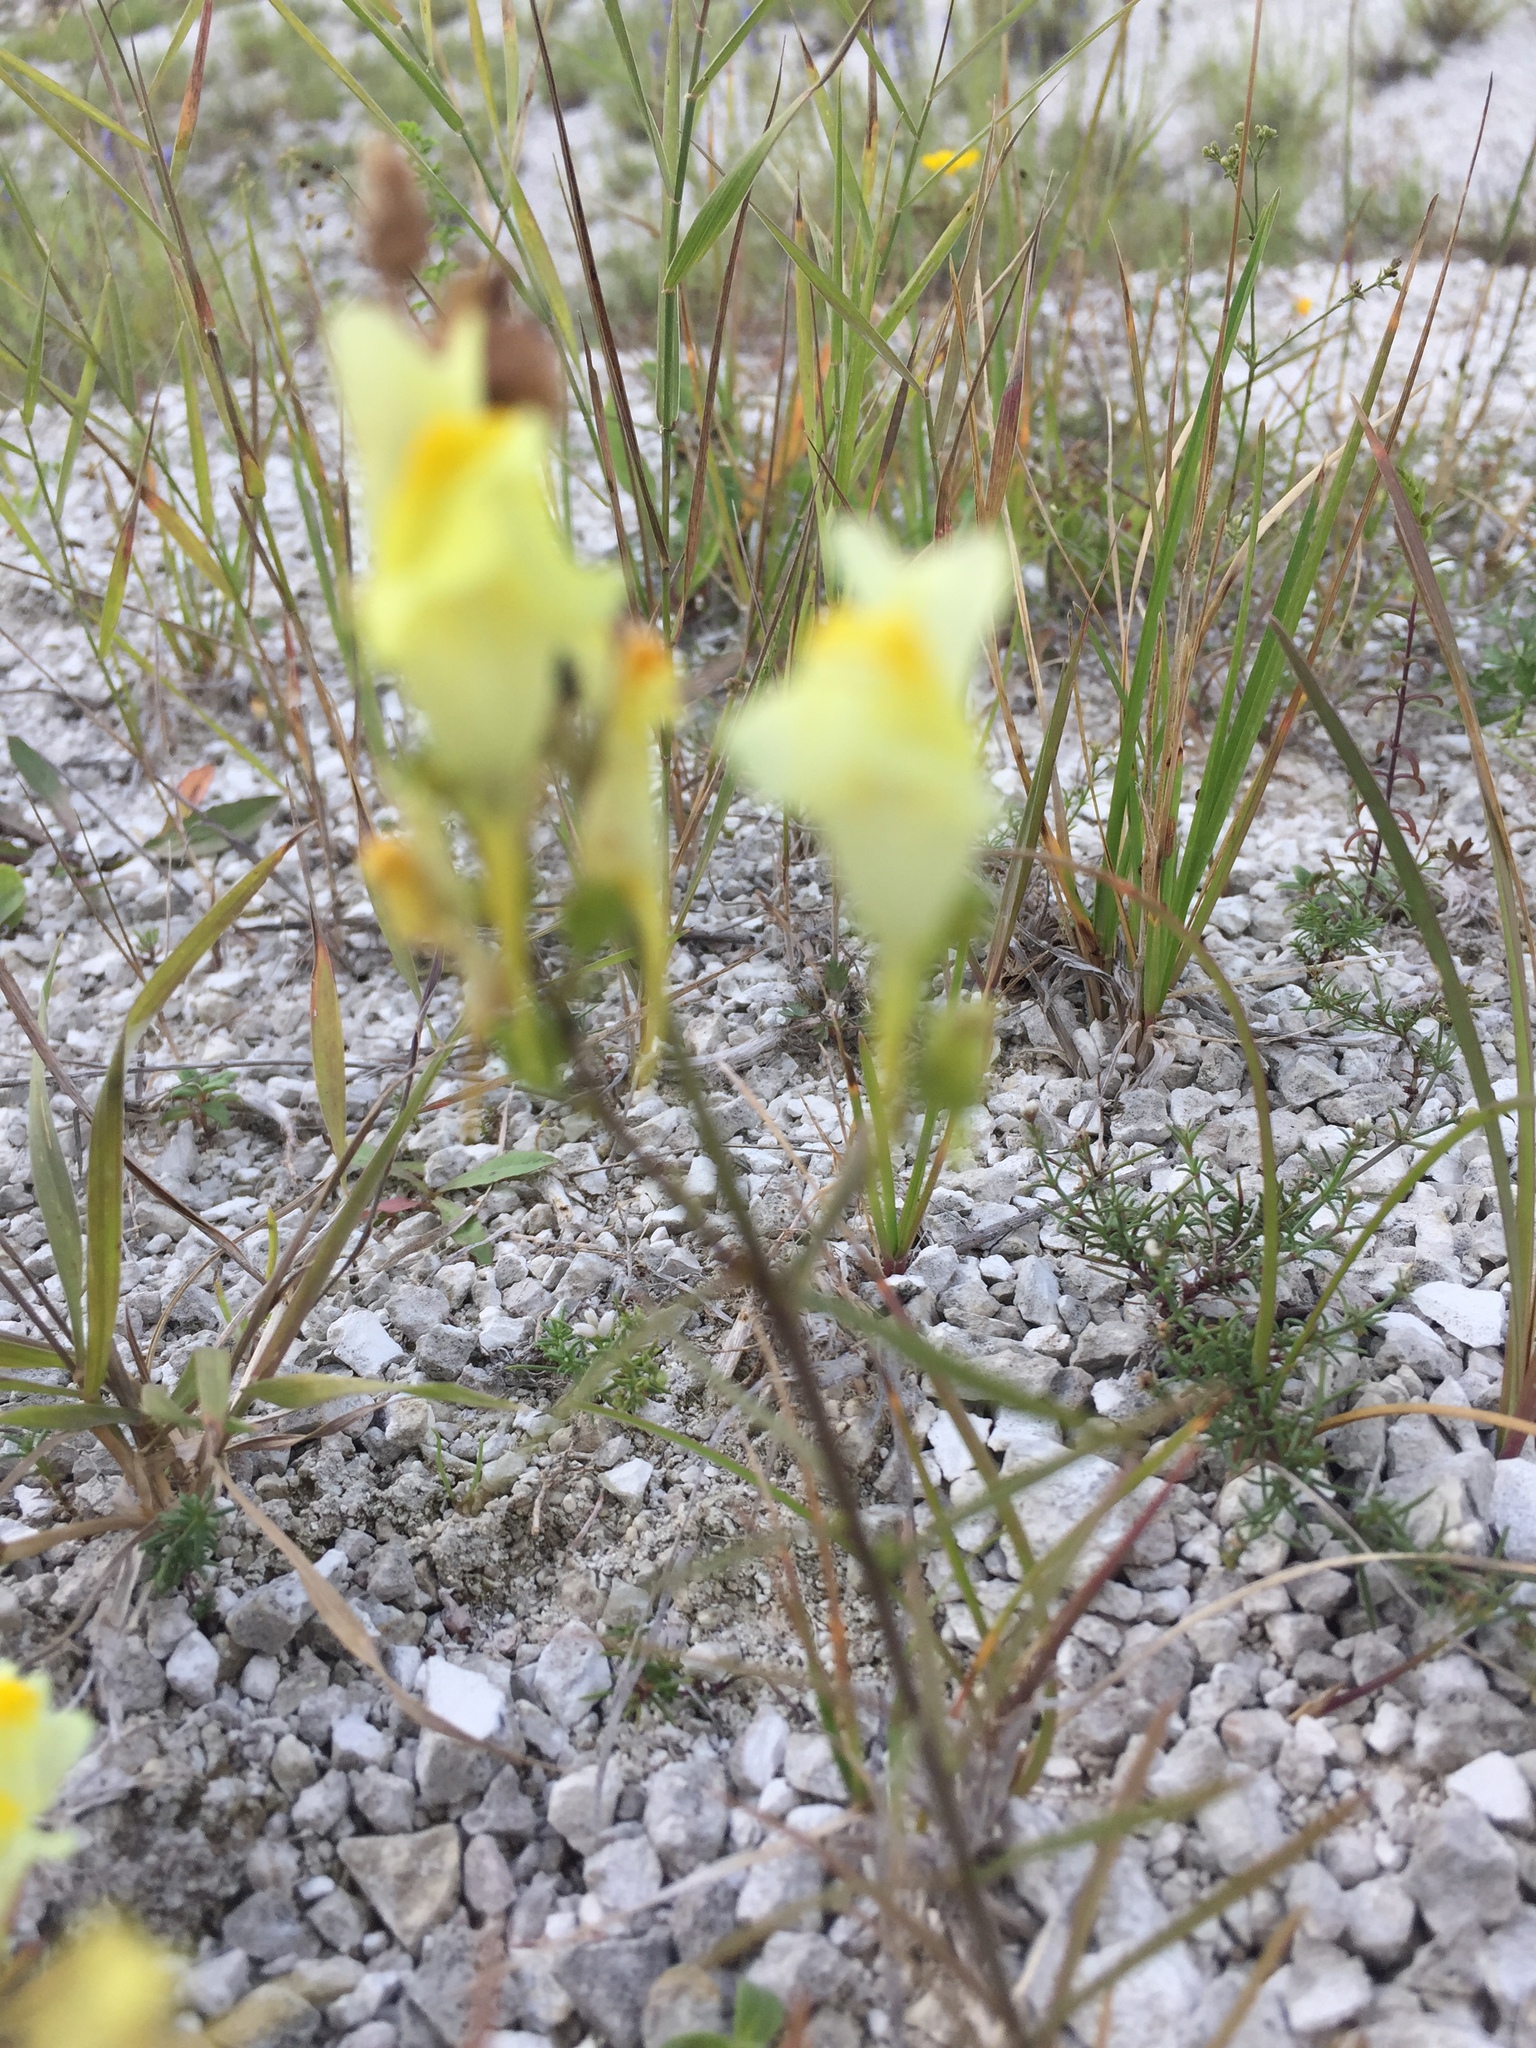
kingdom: Plantae
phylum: Tracheophyta
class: Magnoliopsida
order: Lamiales
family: Plantaginaceae
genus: Linaria
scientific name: Linaria vulgaris
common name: Butter and eggs
